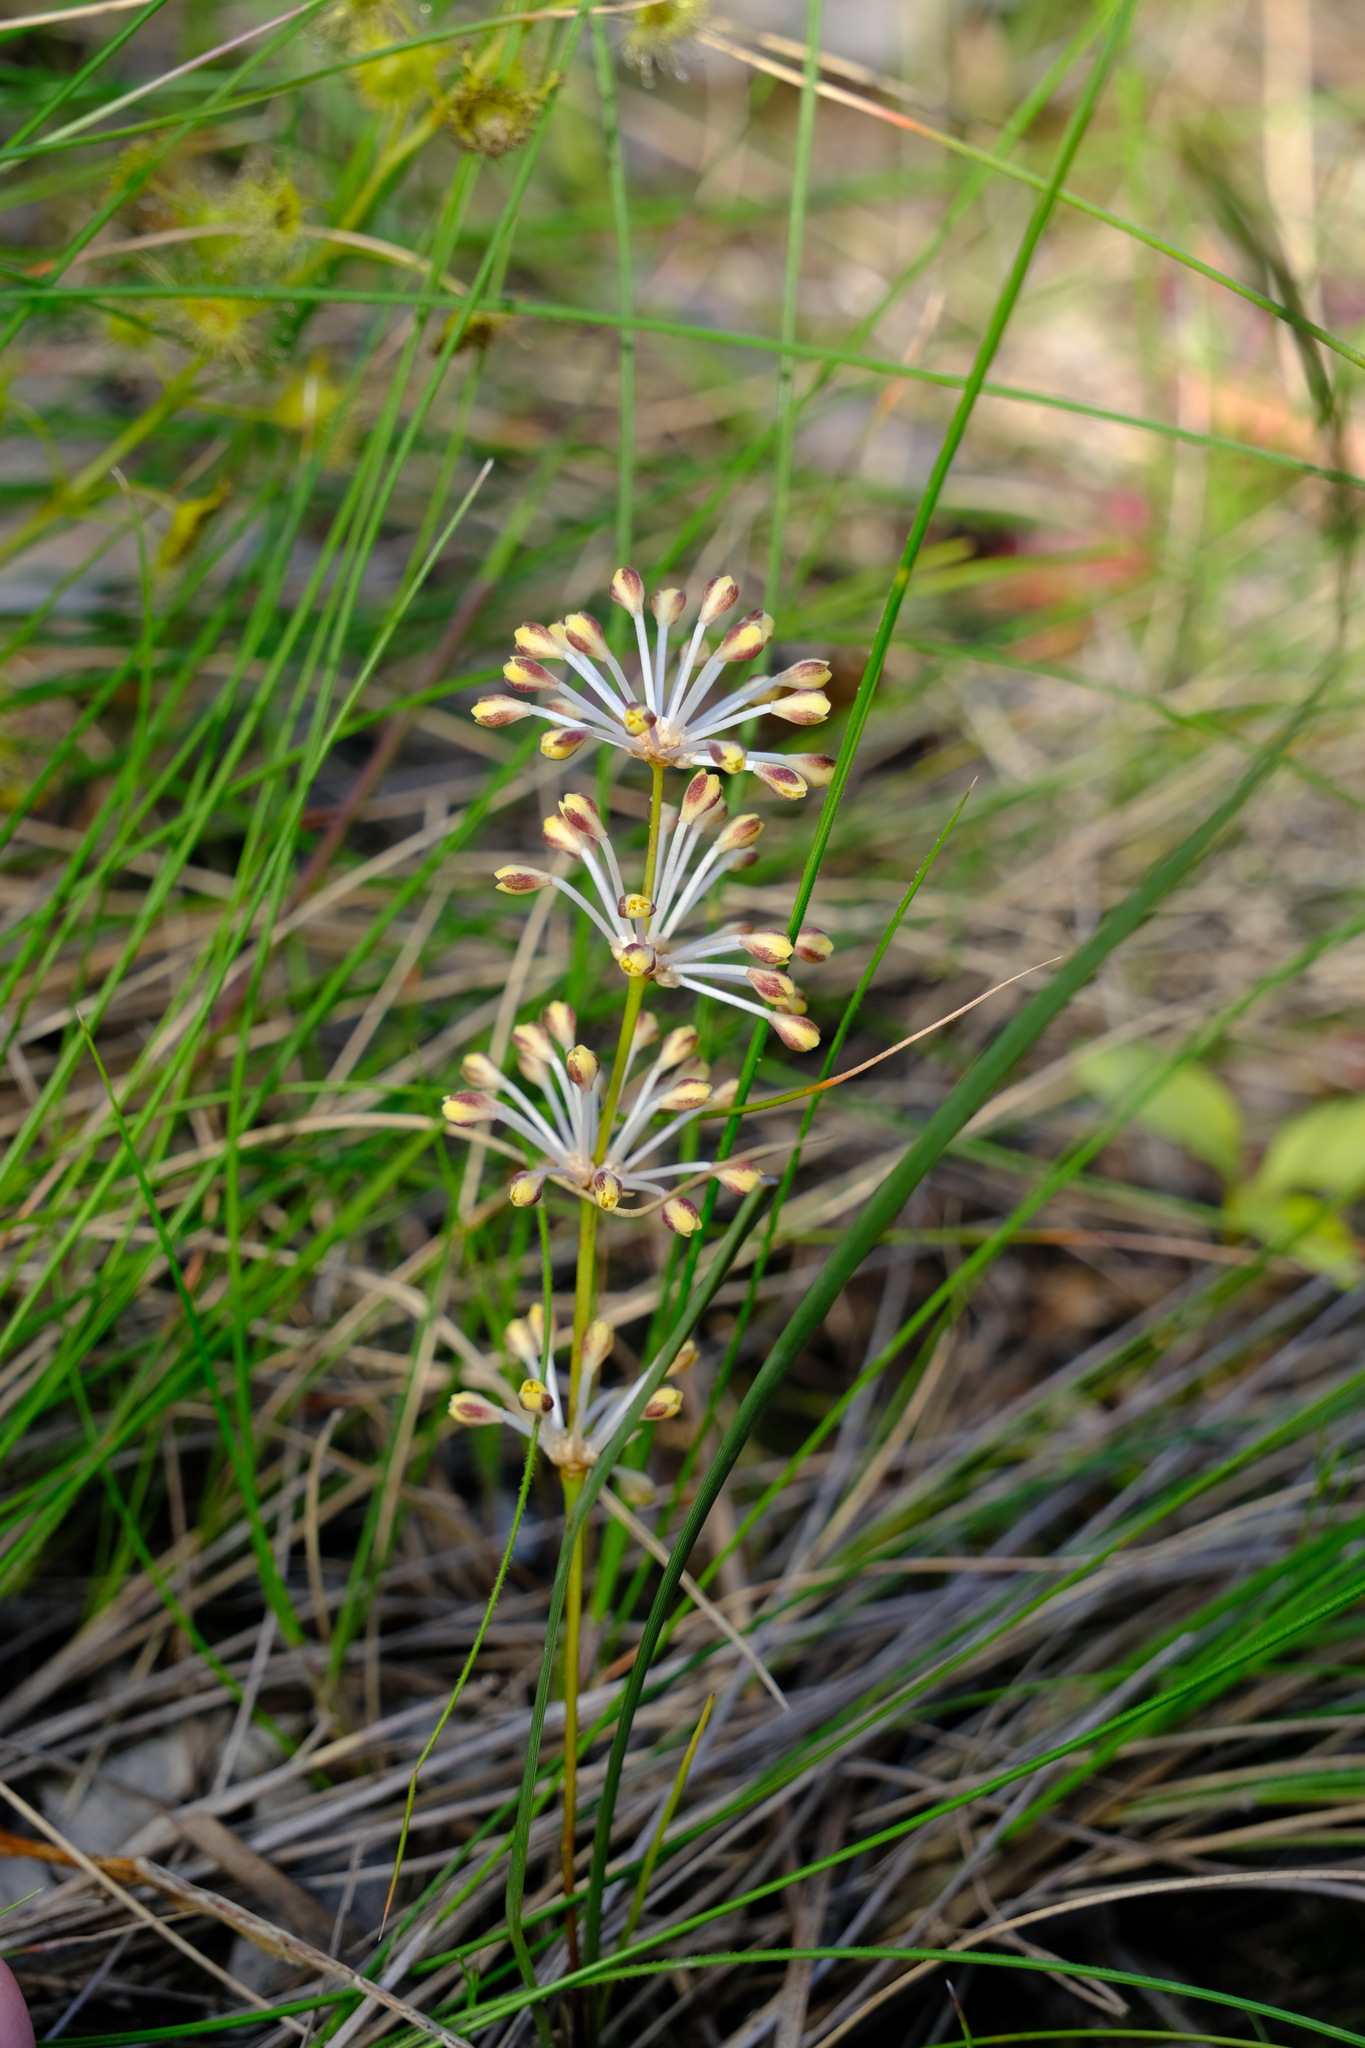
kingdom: Plantae
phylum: Tracheophyta
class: Liliopsida
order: Asparagales
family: Asparagaceae
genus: Lomandra
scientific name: Lomandra multiflora
